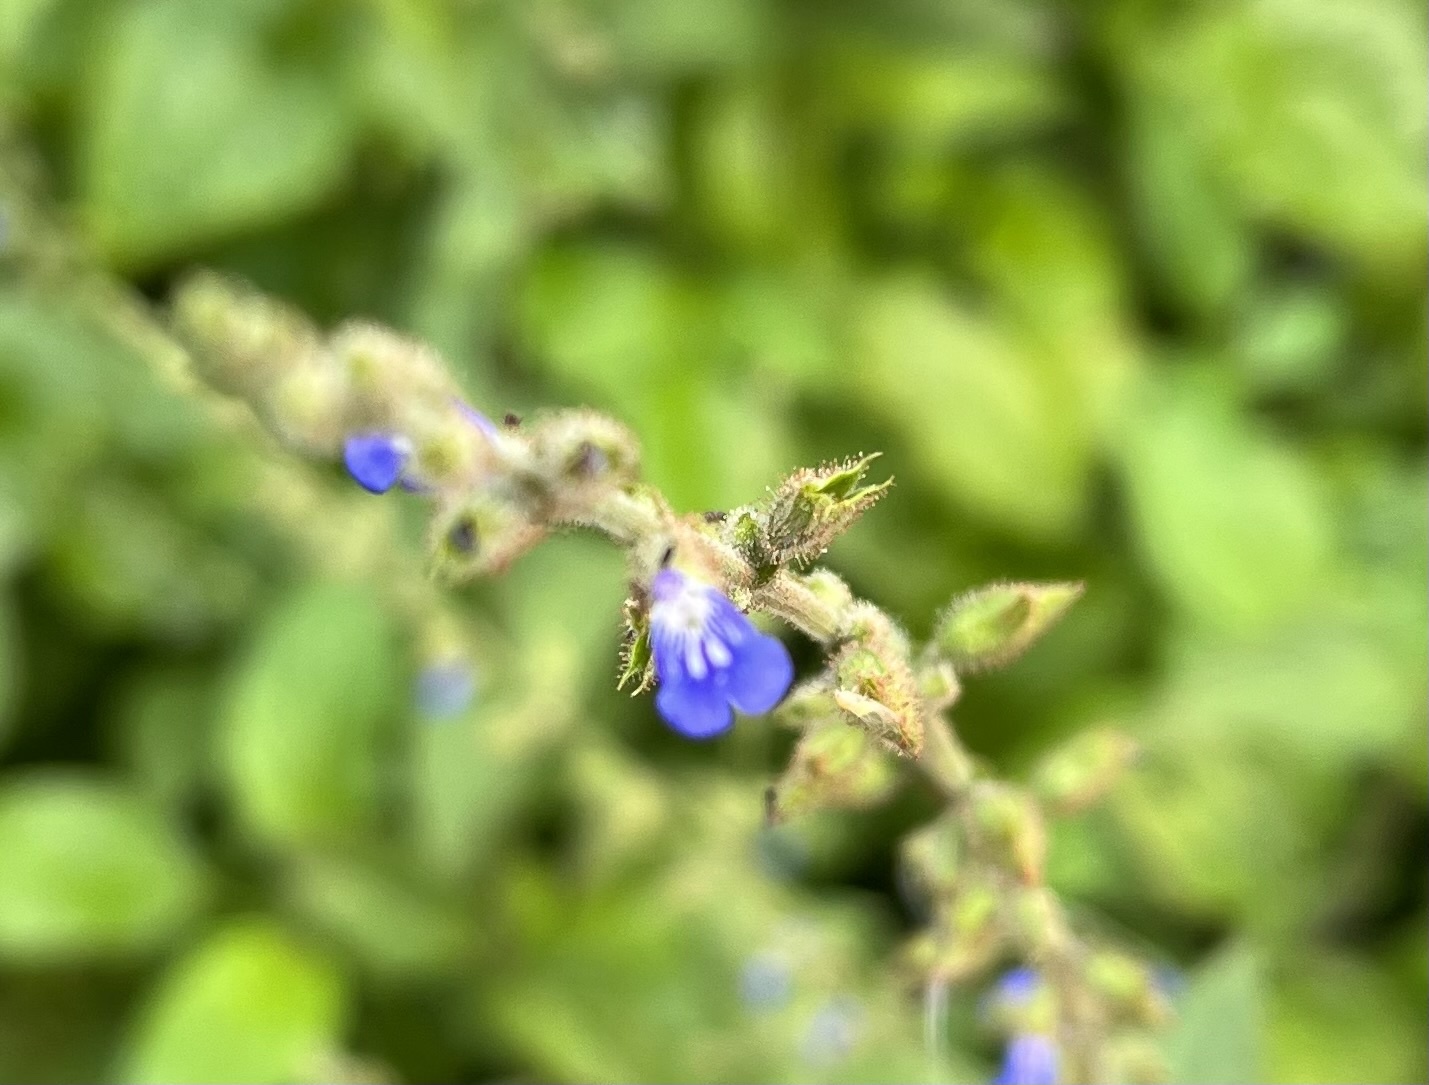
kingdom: Plantae
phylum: Tracheophyta
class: Magnoliopsida
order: Lamiales
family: Lamiaceae
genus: Salvia
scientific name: Salvia misella
